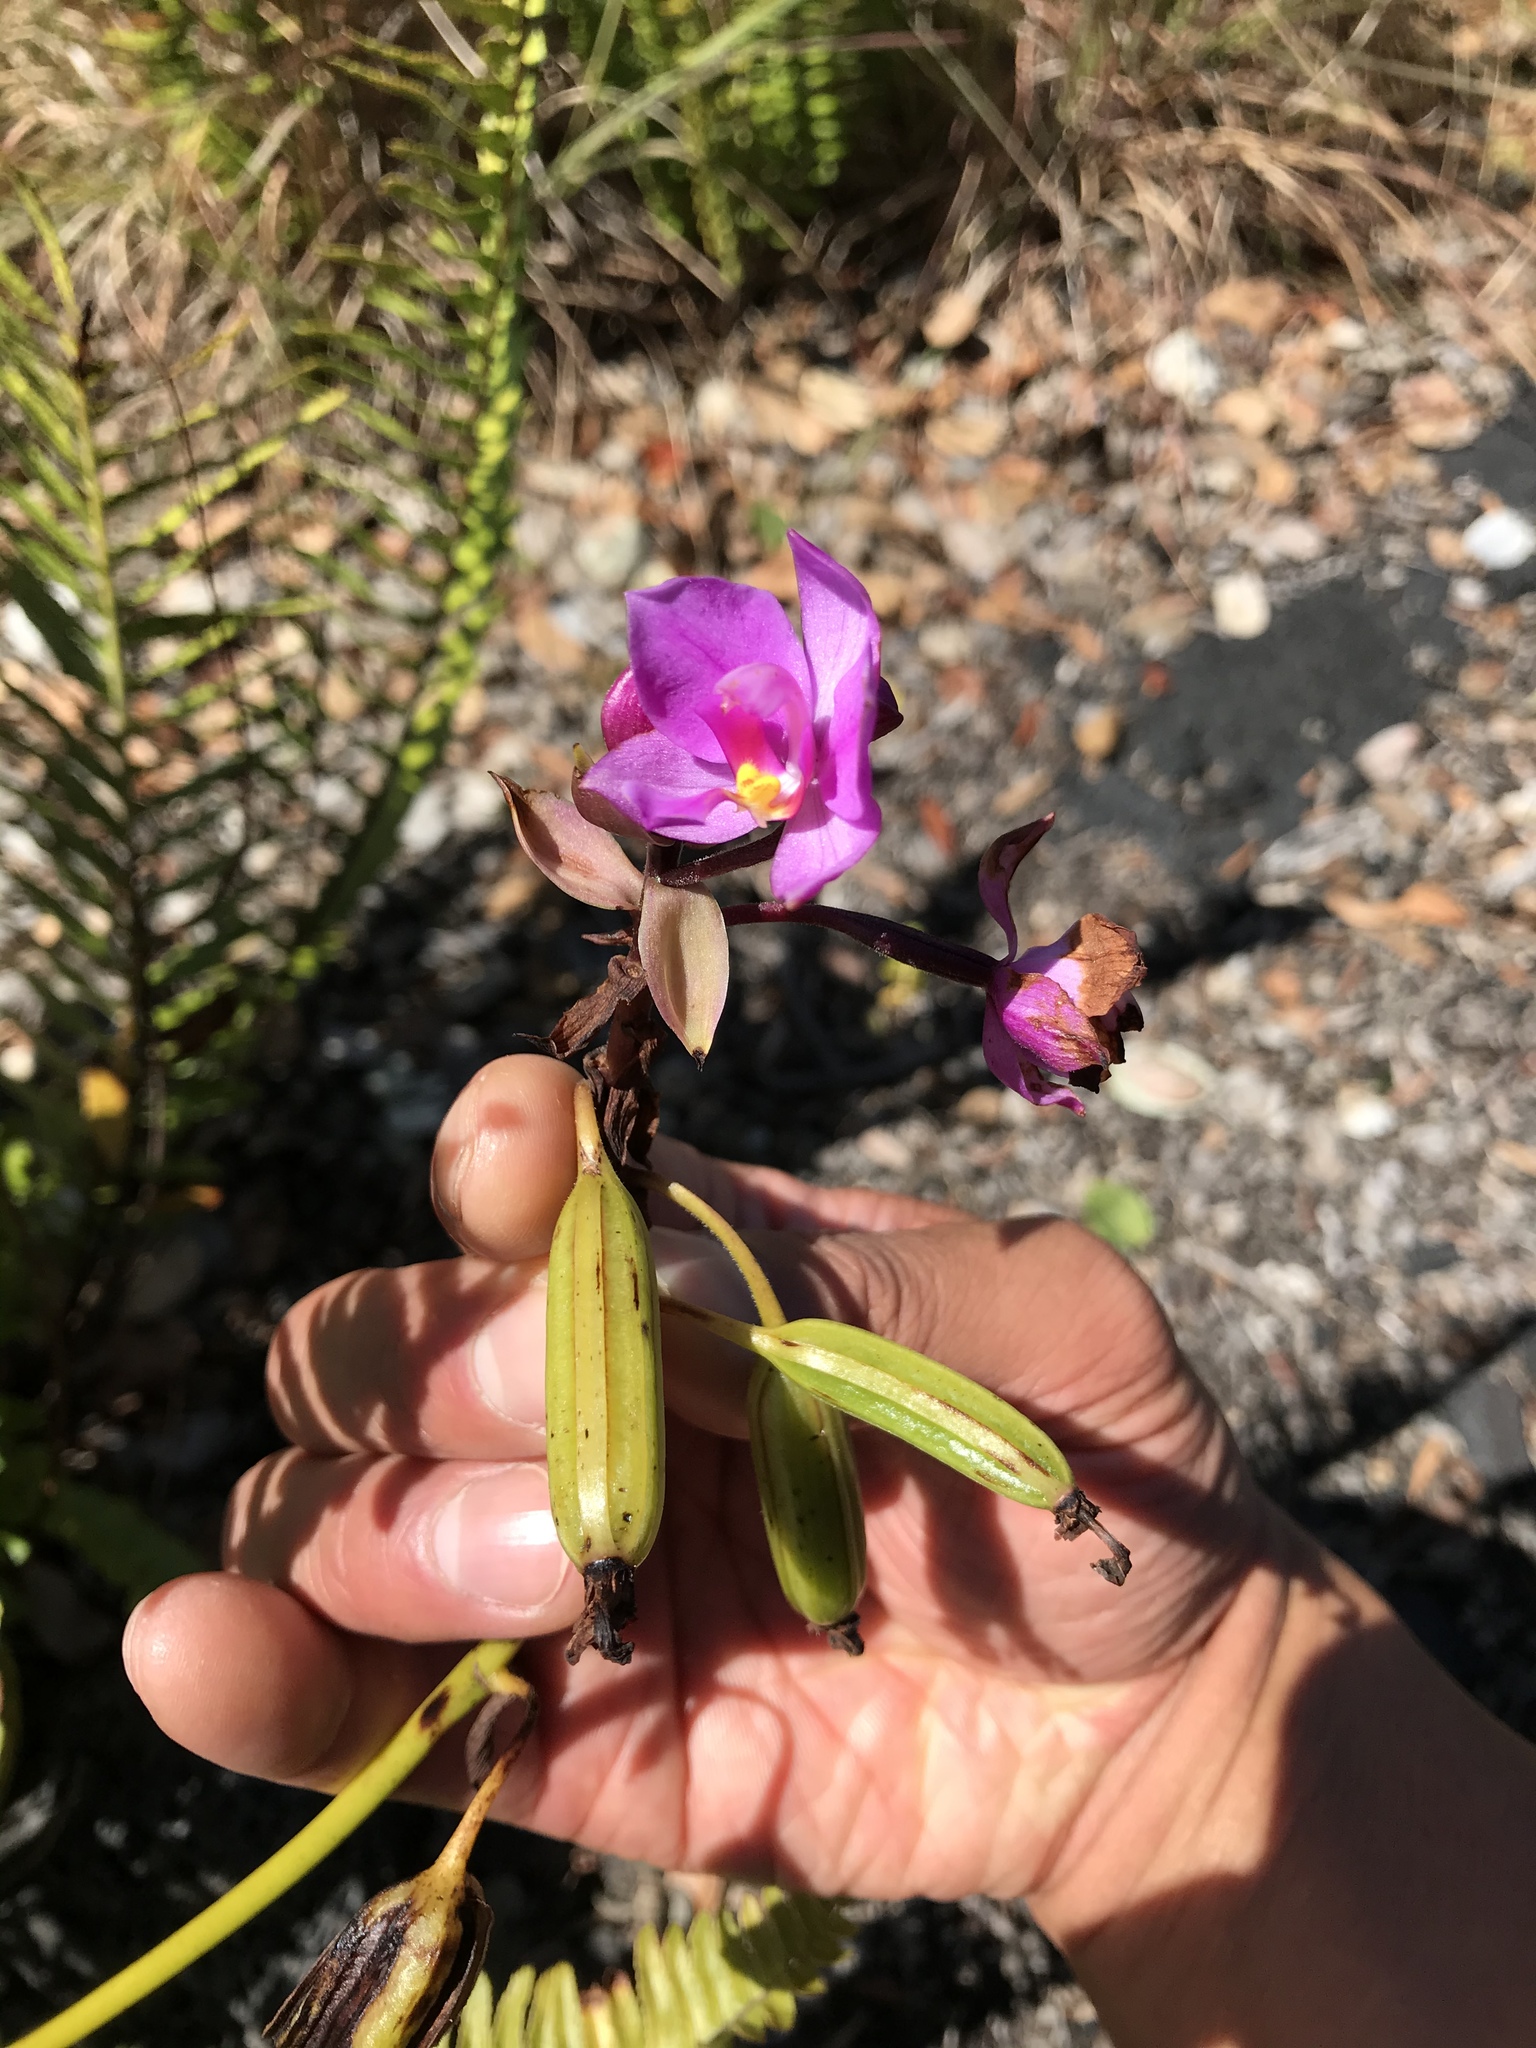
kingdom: Plantae
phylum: Tracheophyta
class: Liliopsida
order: Asparagales
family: Orchidaceae
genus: Spathoglottis
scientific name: Spathoglottis plicata
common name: Philippine ground orchid
